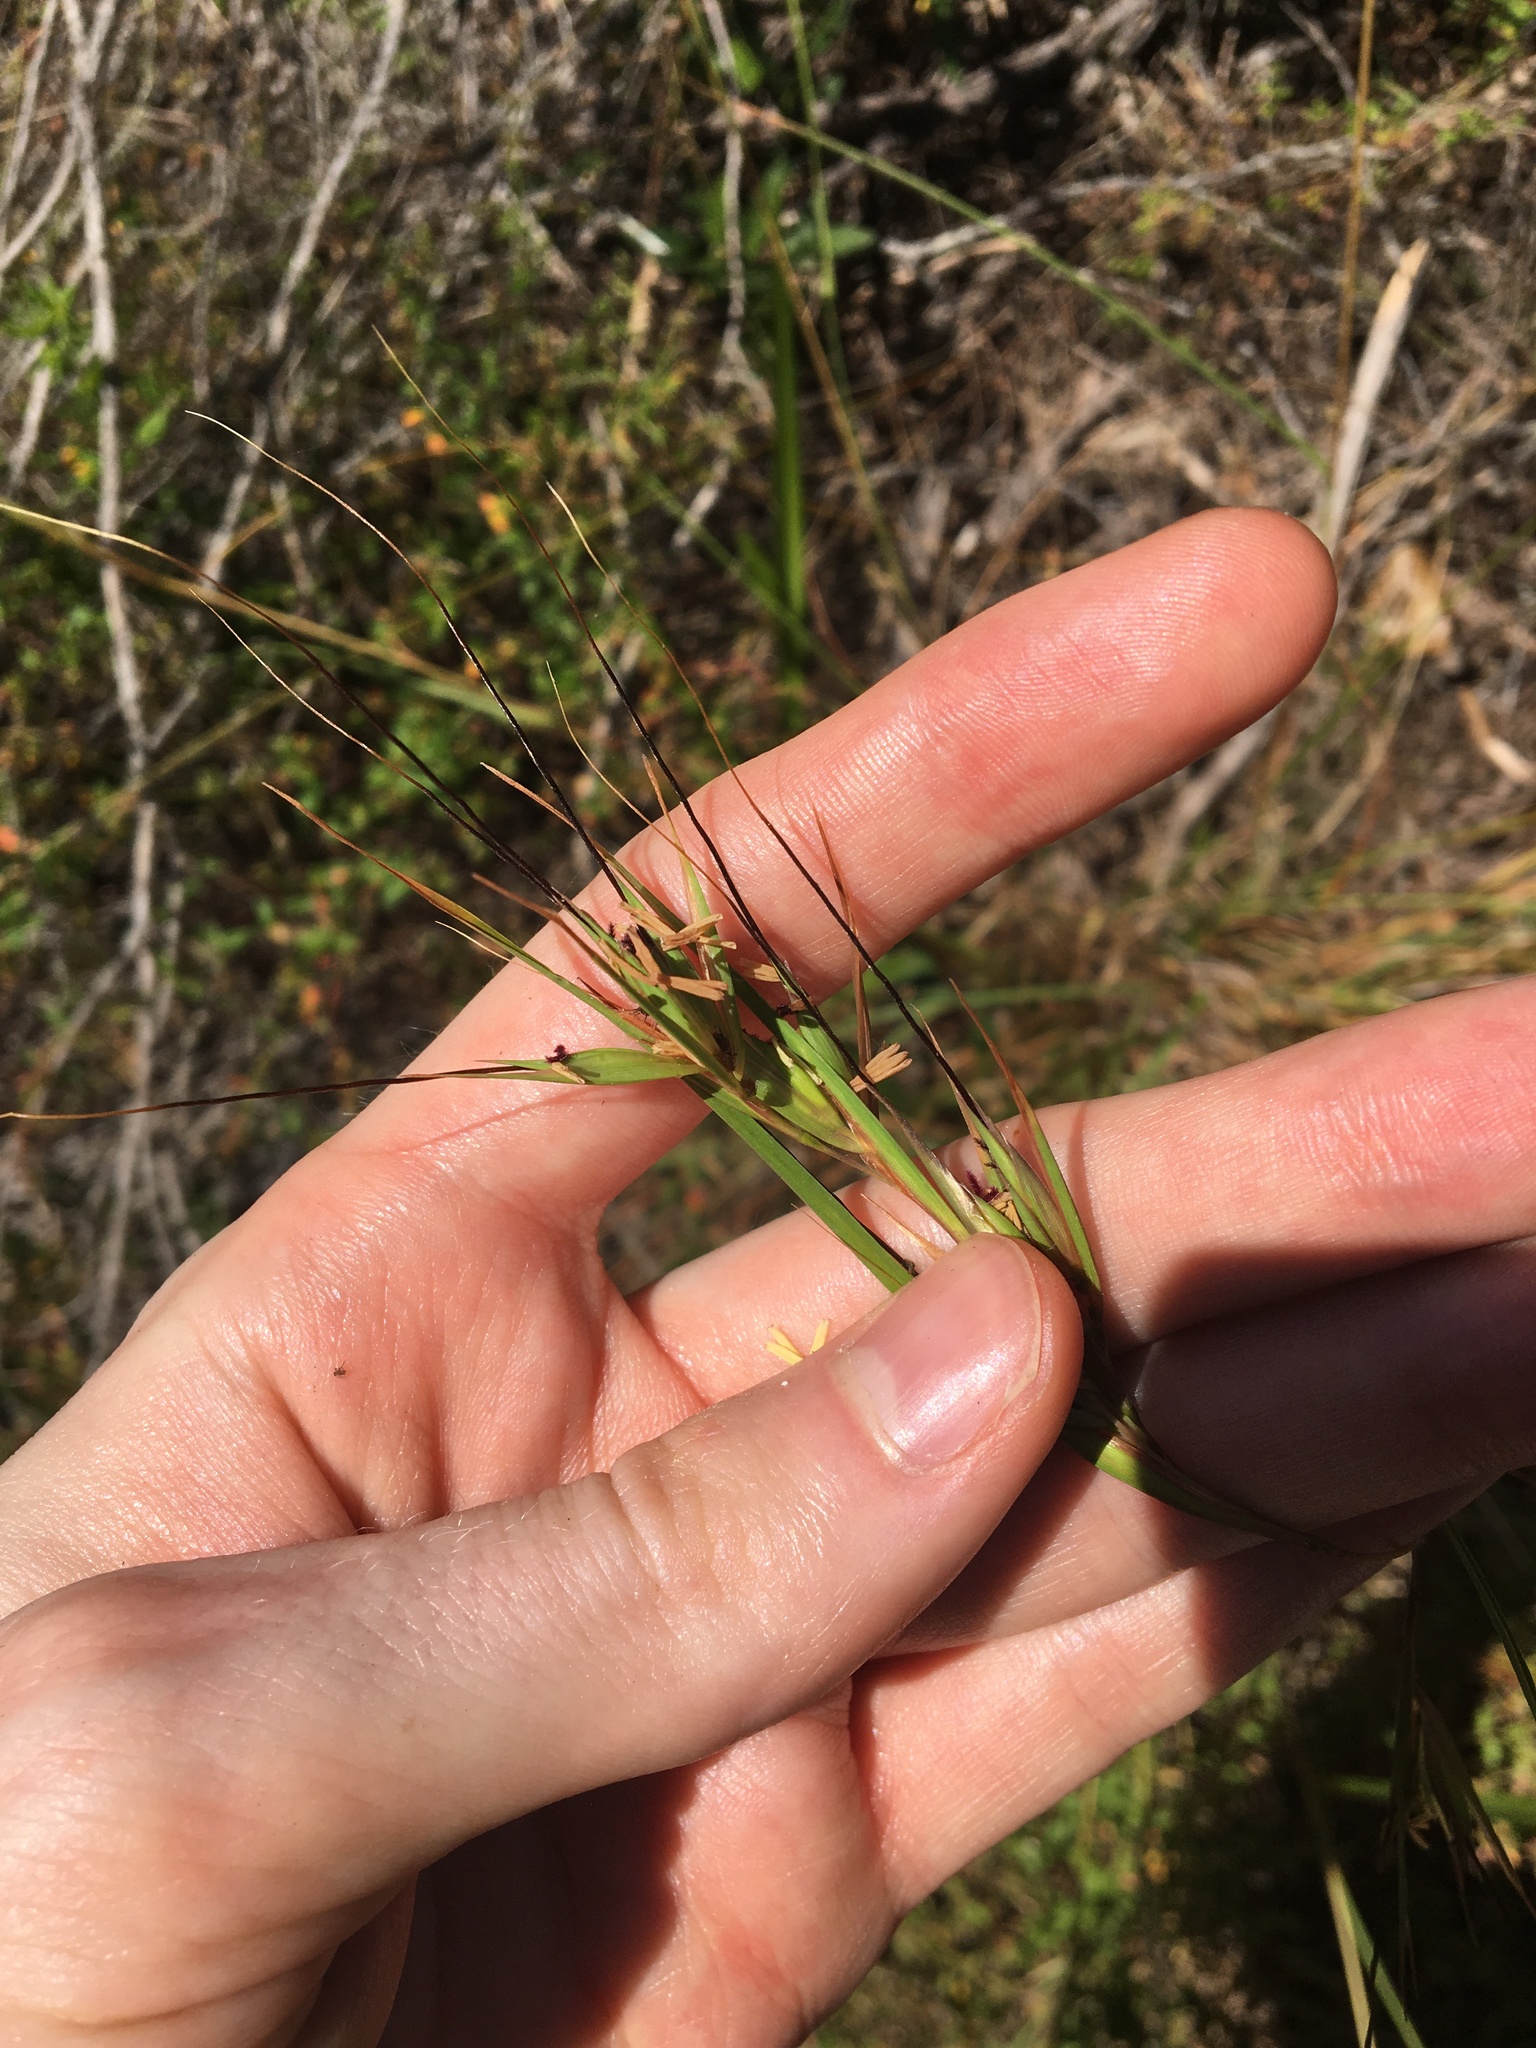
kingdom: Plantae
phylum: Tracheophyta
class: Liliopsida
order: Poales
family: Poaceae
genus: Themeda
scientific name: Themeda triandra
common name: Kangaroo grass
